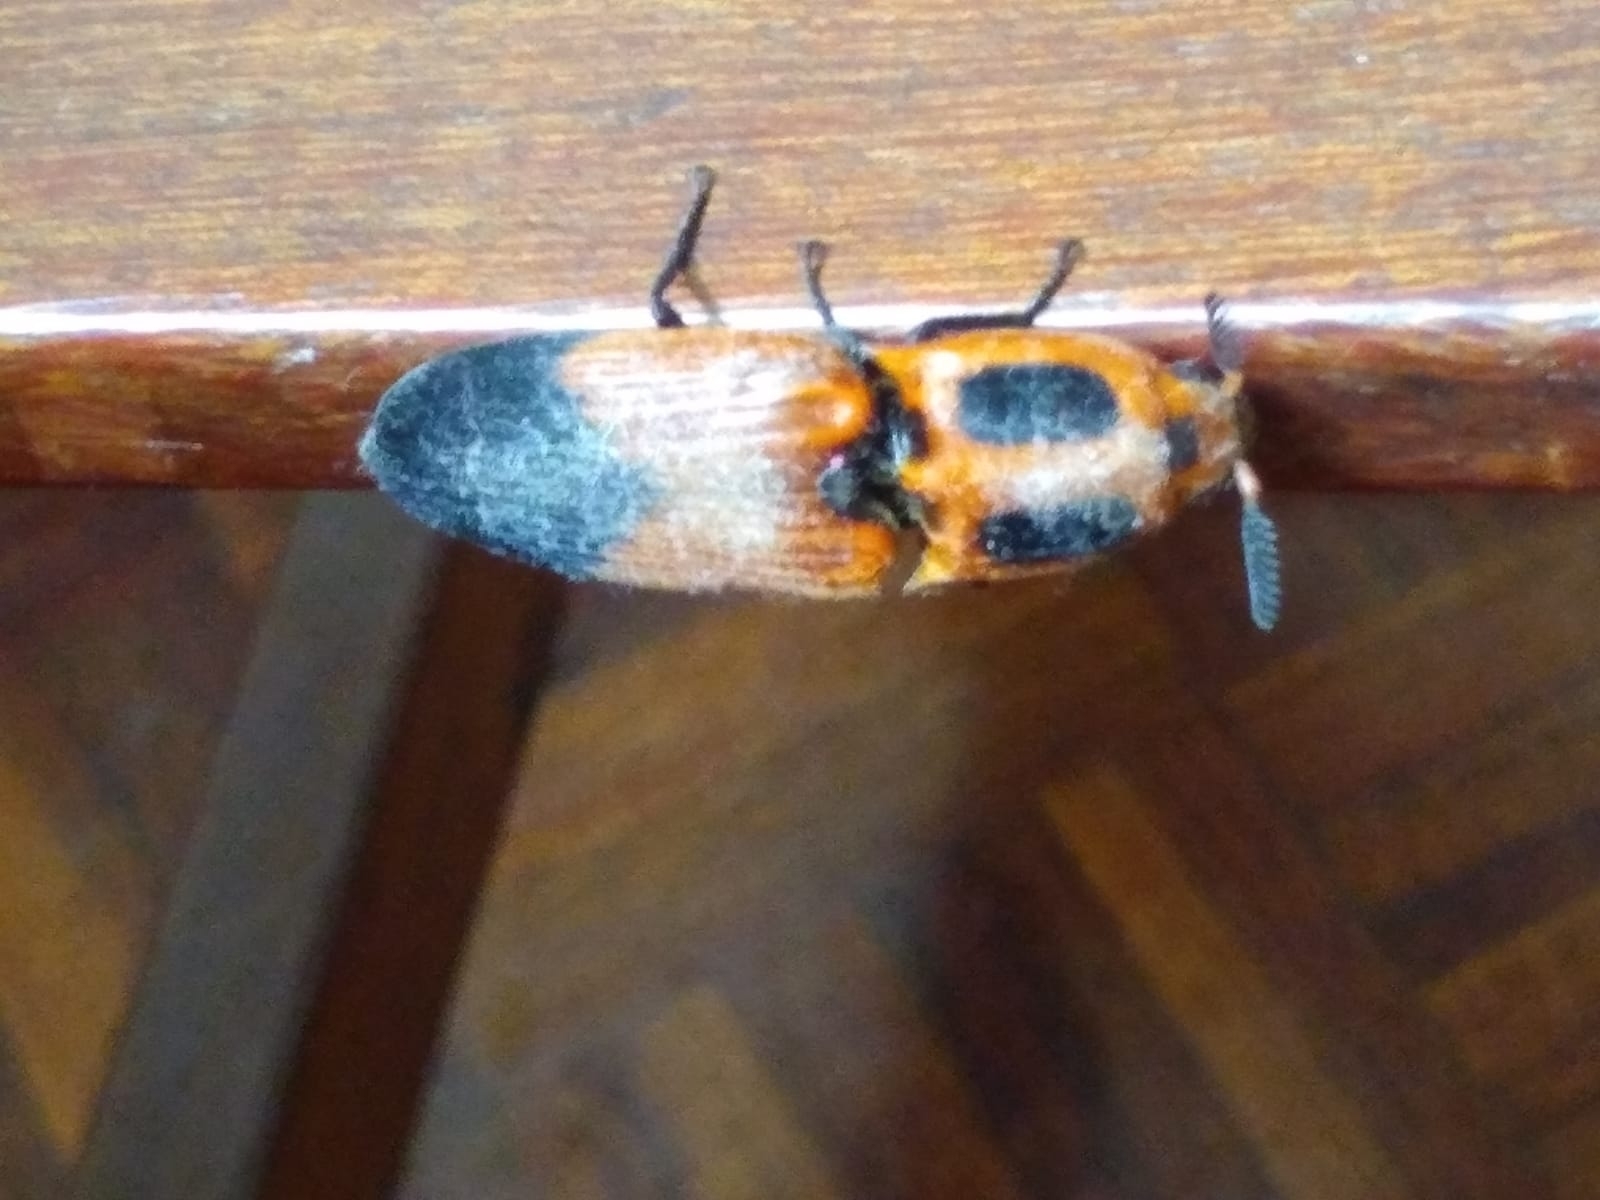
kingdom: Animalia
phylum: Arthropoda
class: Insecta
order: Coleoptera
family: Elateridae
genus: Hemirhipus
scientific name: Hemirhipus
